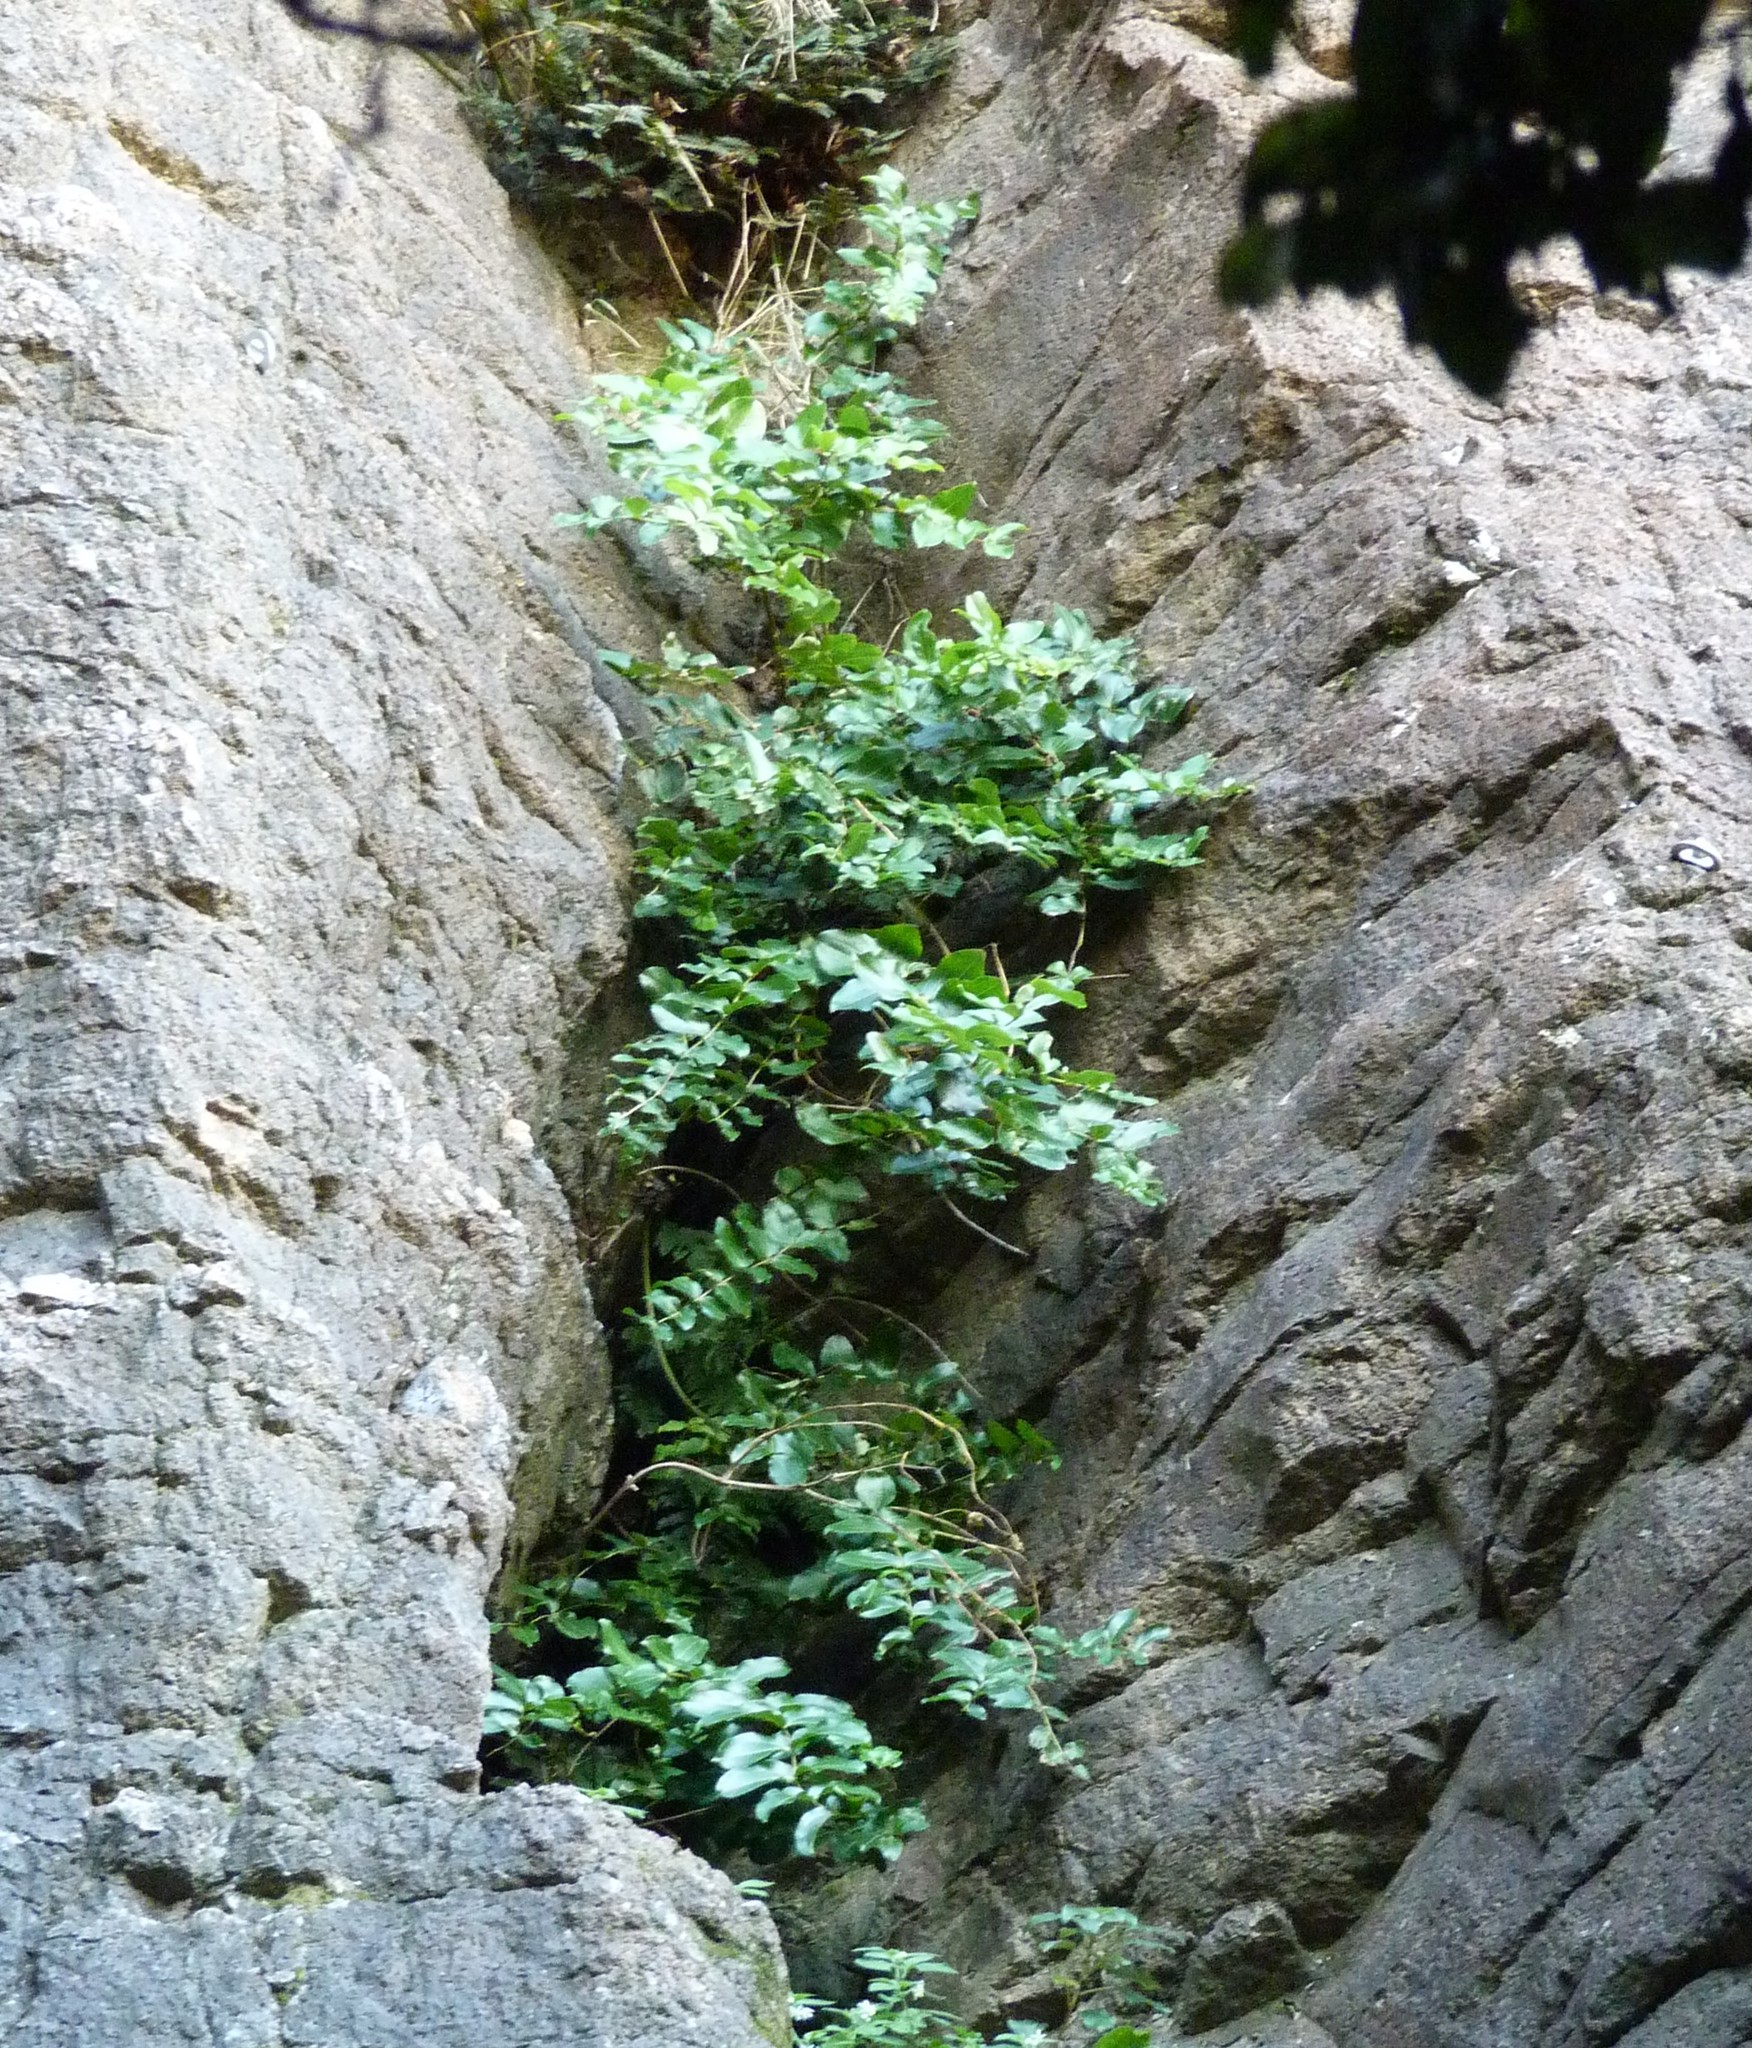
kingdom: Plantae
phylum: Tracheophyta
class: Magnoliopsida
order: Cucurbitales
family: Coriariaceae
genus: Coriaria
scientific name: Coriaria arborea
